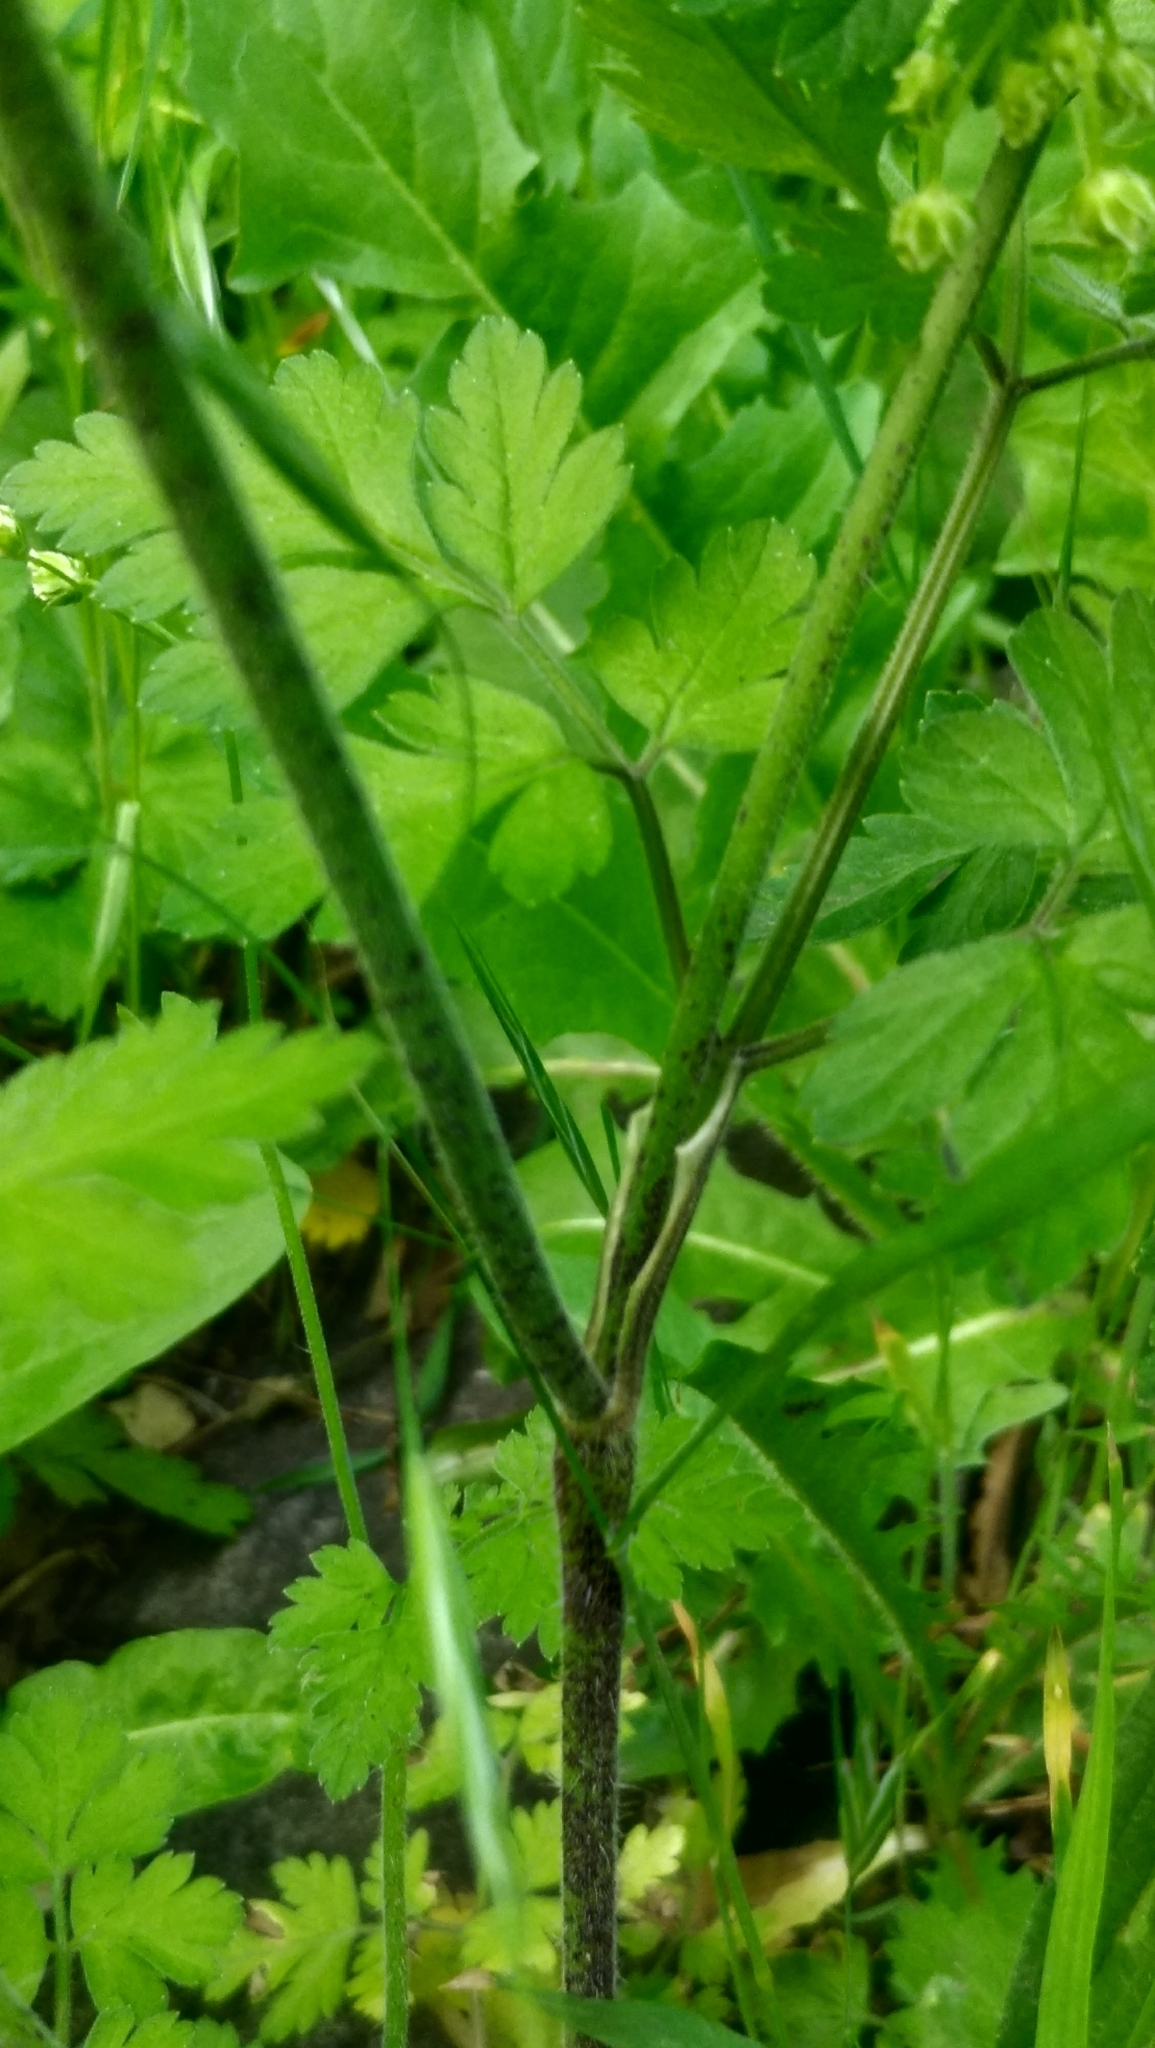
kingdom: Plantae
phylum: Tracheophyta
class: Magnoliopsida
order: Apiales
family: Apiaceae
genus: Chaerophyllum
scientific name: Chaerophyllum temulum
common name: Rough chervil
